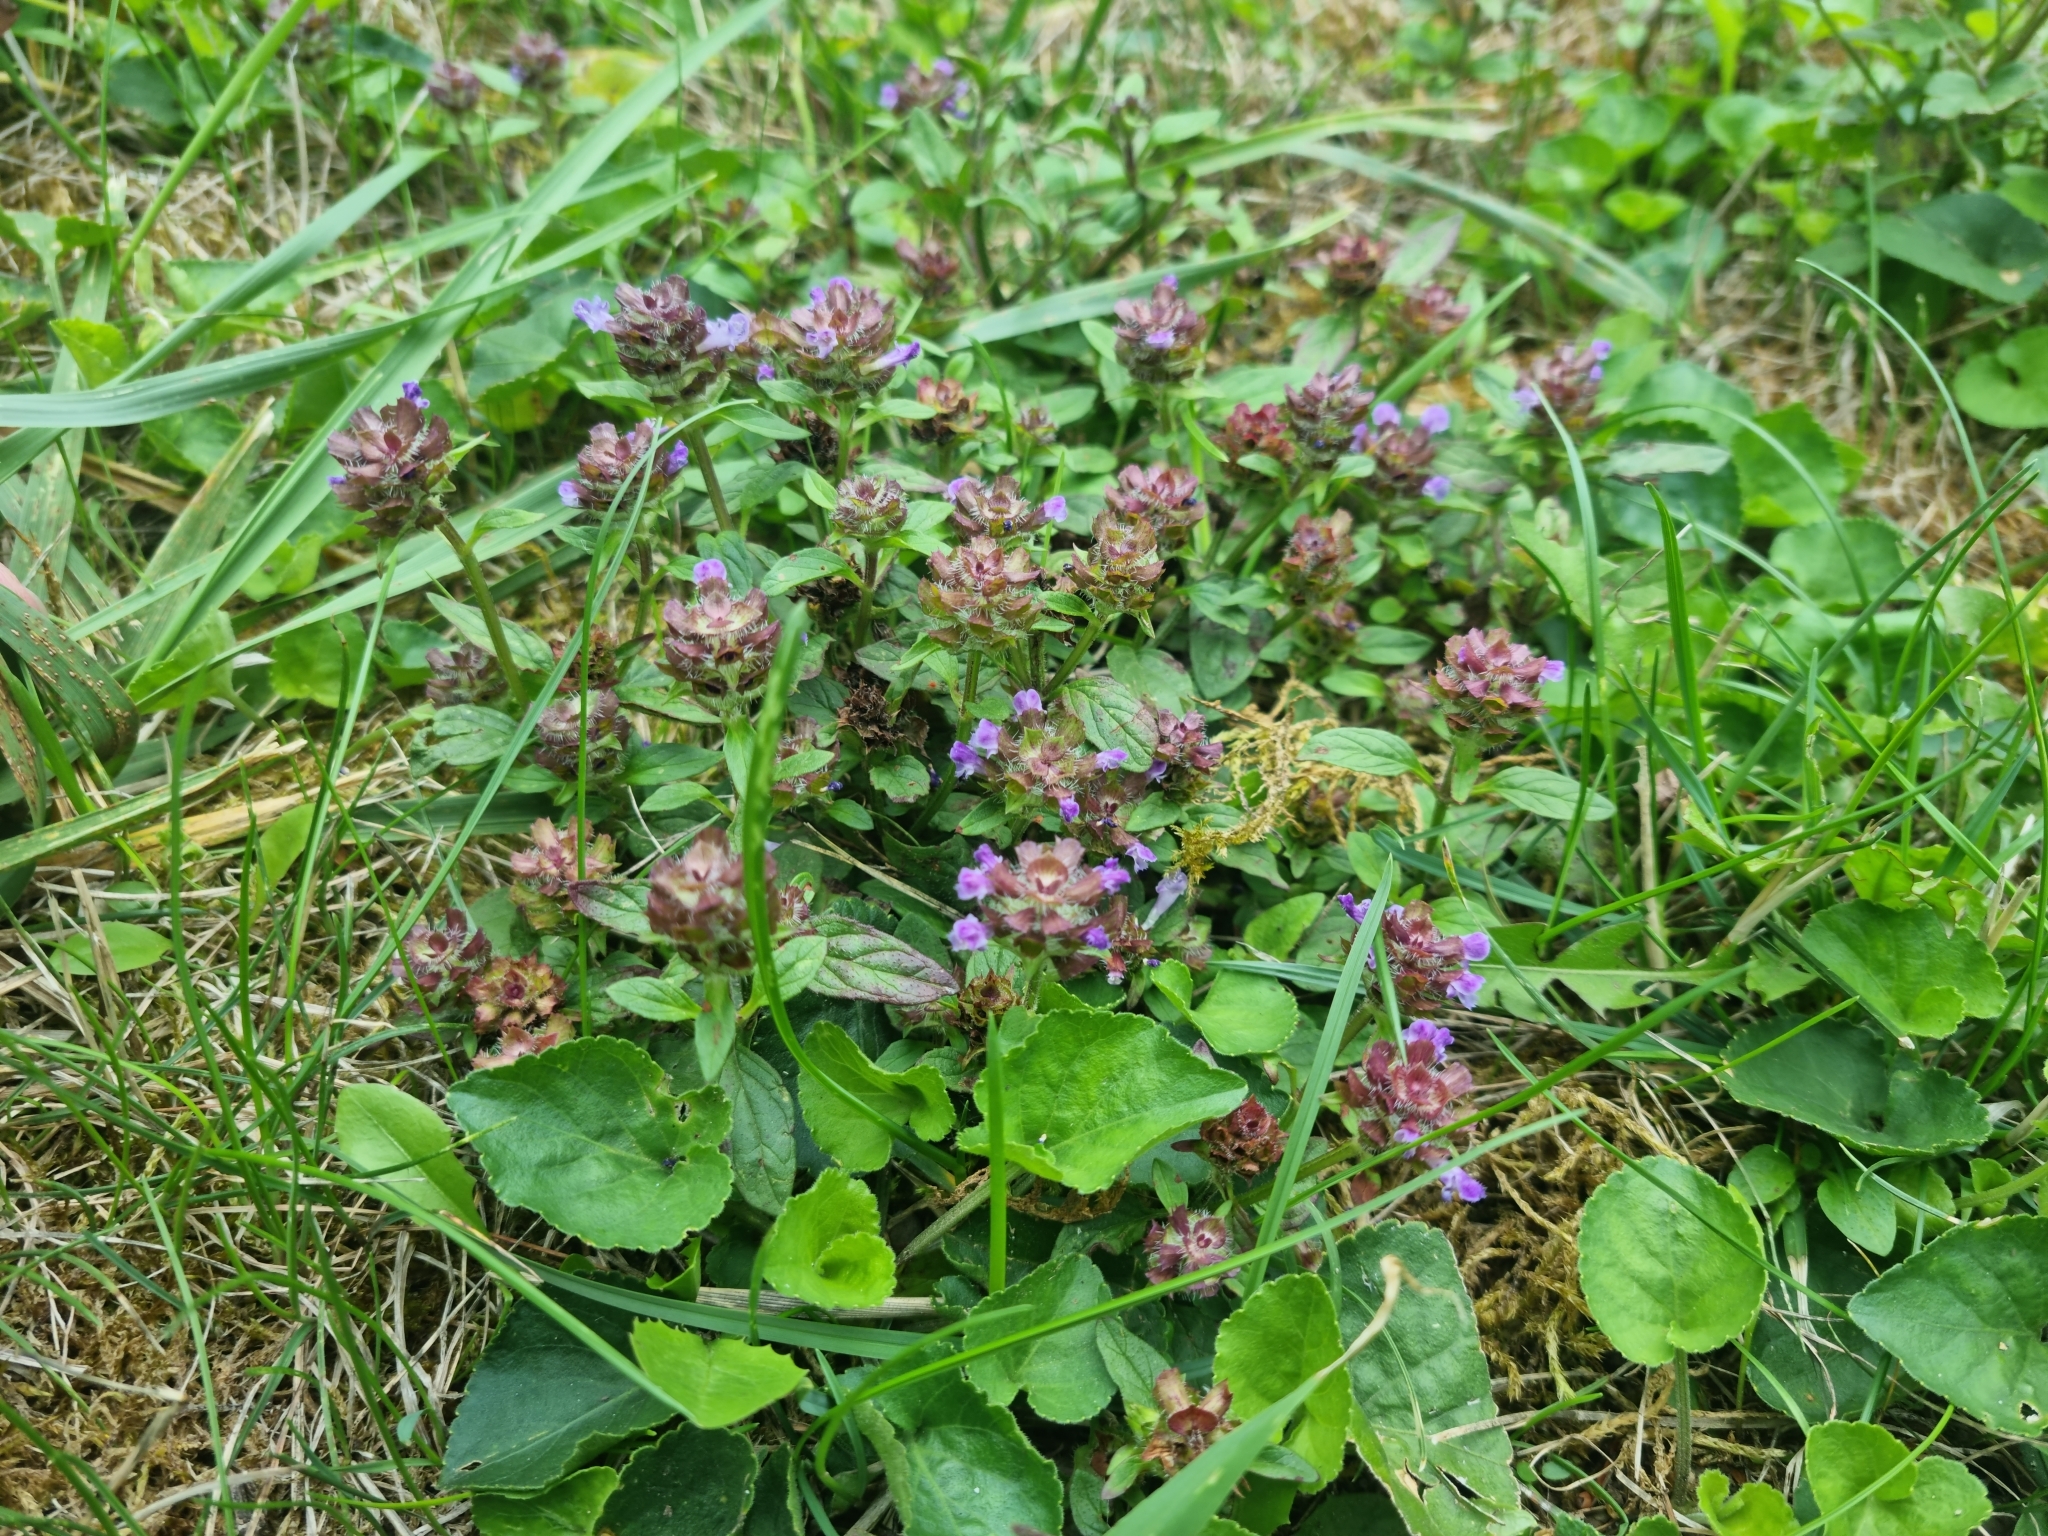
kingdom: Plantae
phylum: Tracheophyta
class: Magnoliopsida
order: Lamiales
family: Lamiaceae
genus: Prunella
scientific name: Prunella vulgaris
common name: Heal-all
